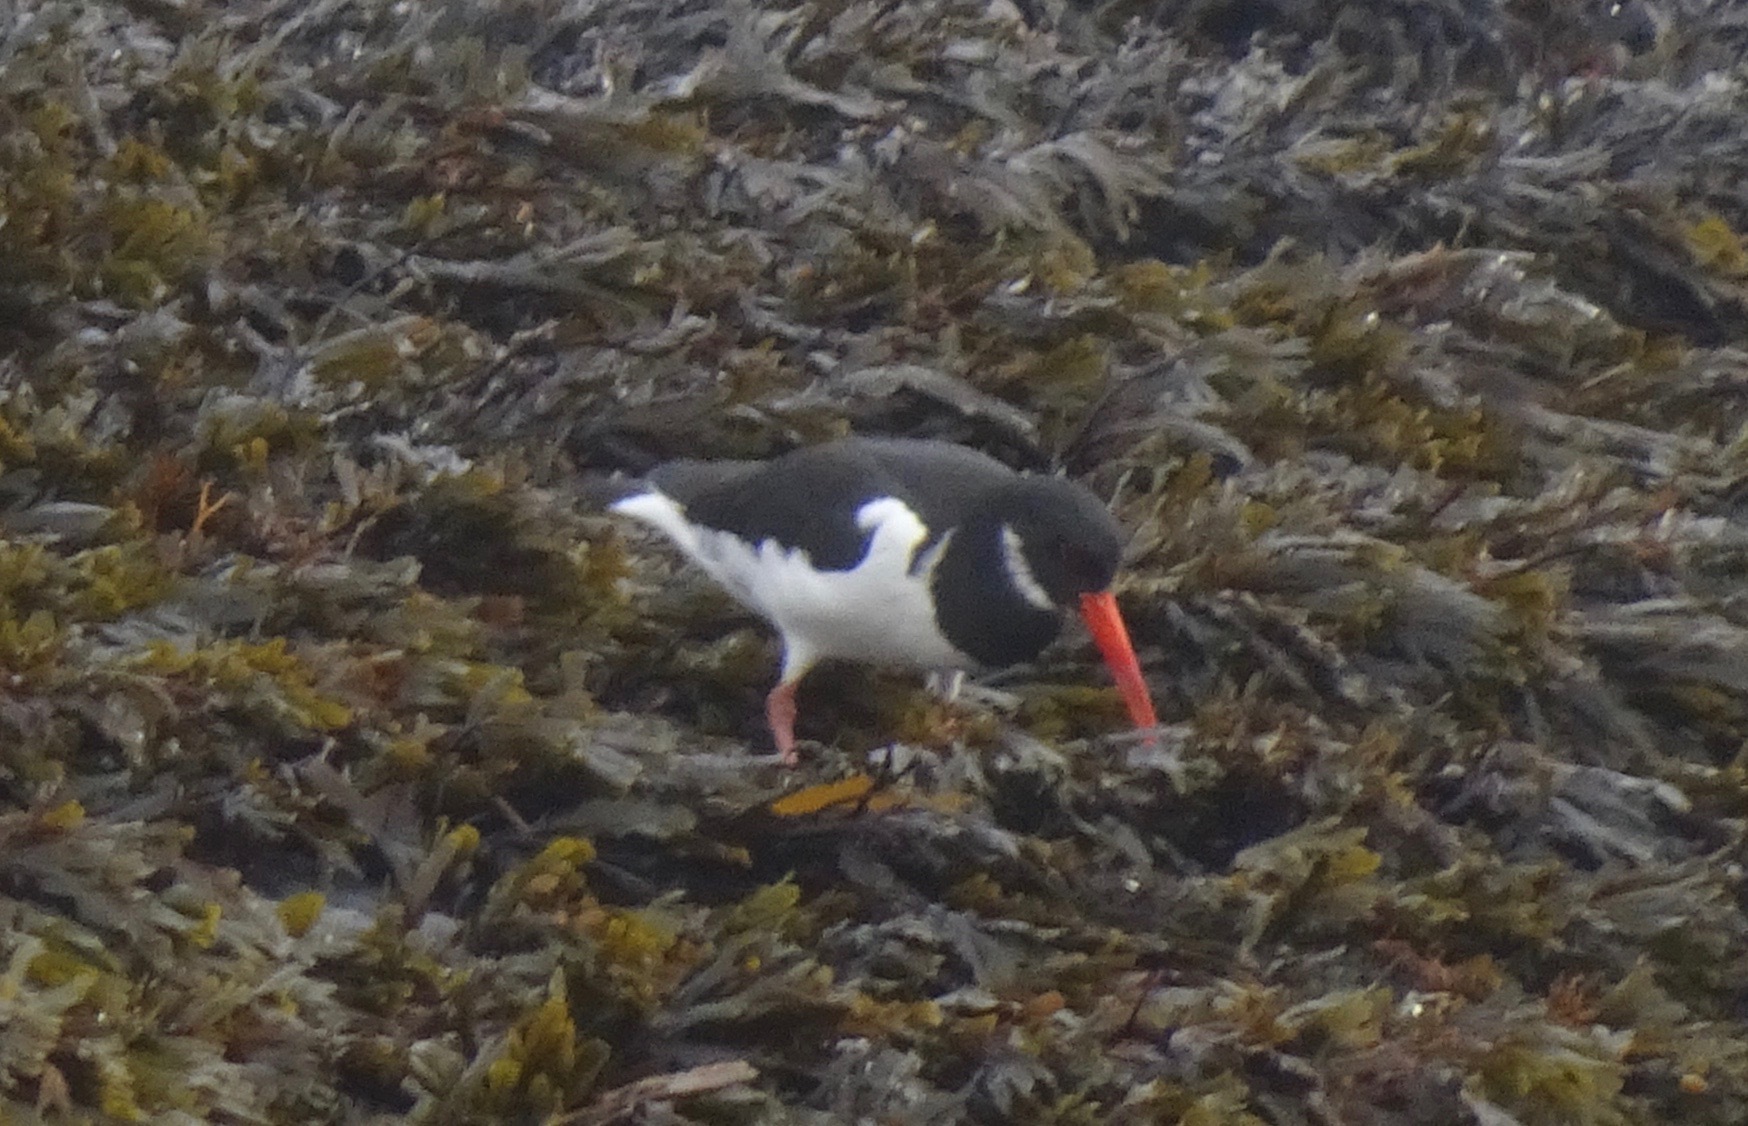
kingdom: Animalia
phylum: Chordata
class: Aves
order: Charadriiformes
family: Haematopodidae
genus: Haematopus
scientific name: Haematopus ostralegus
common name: Eurasian oystercatcher
